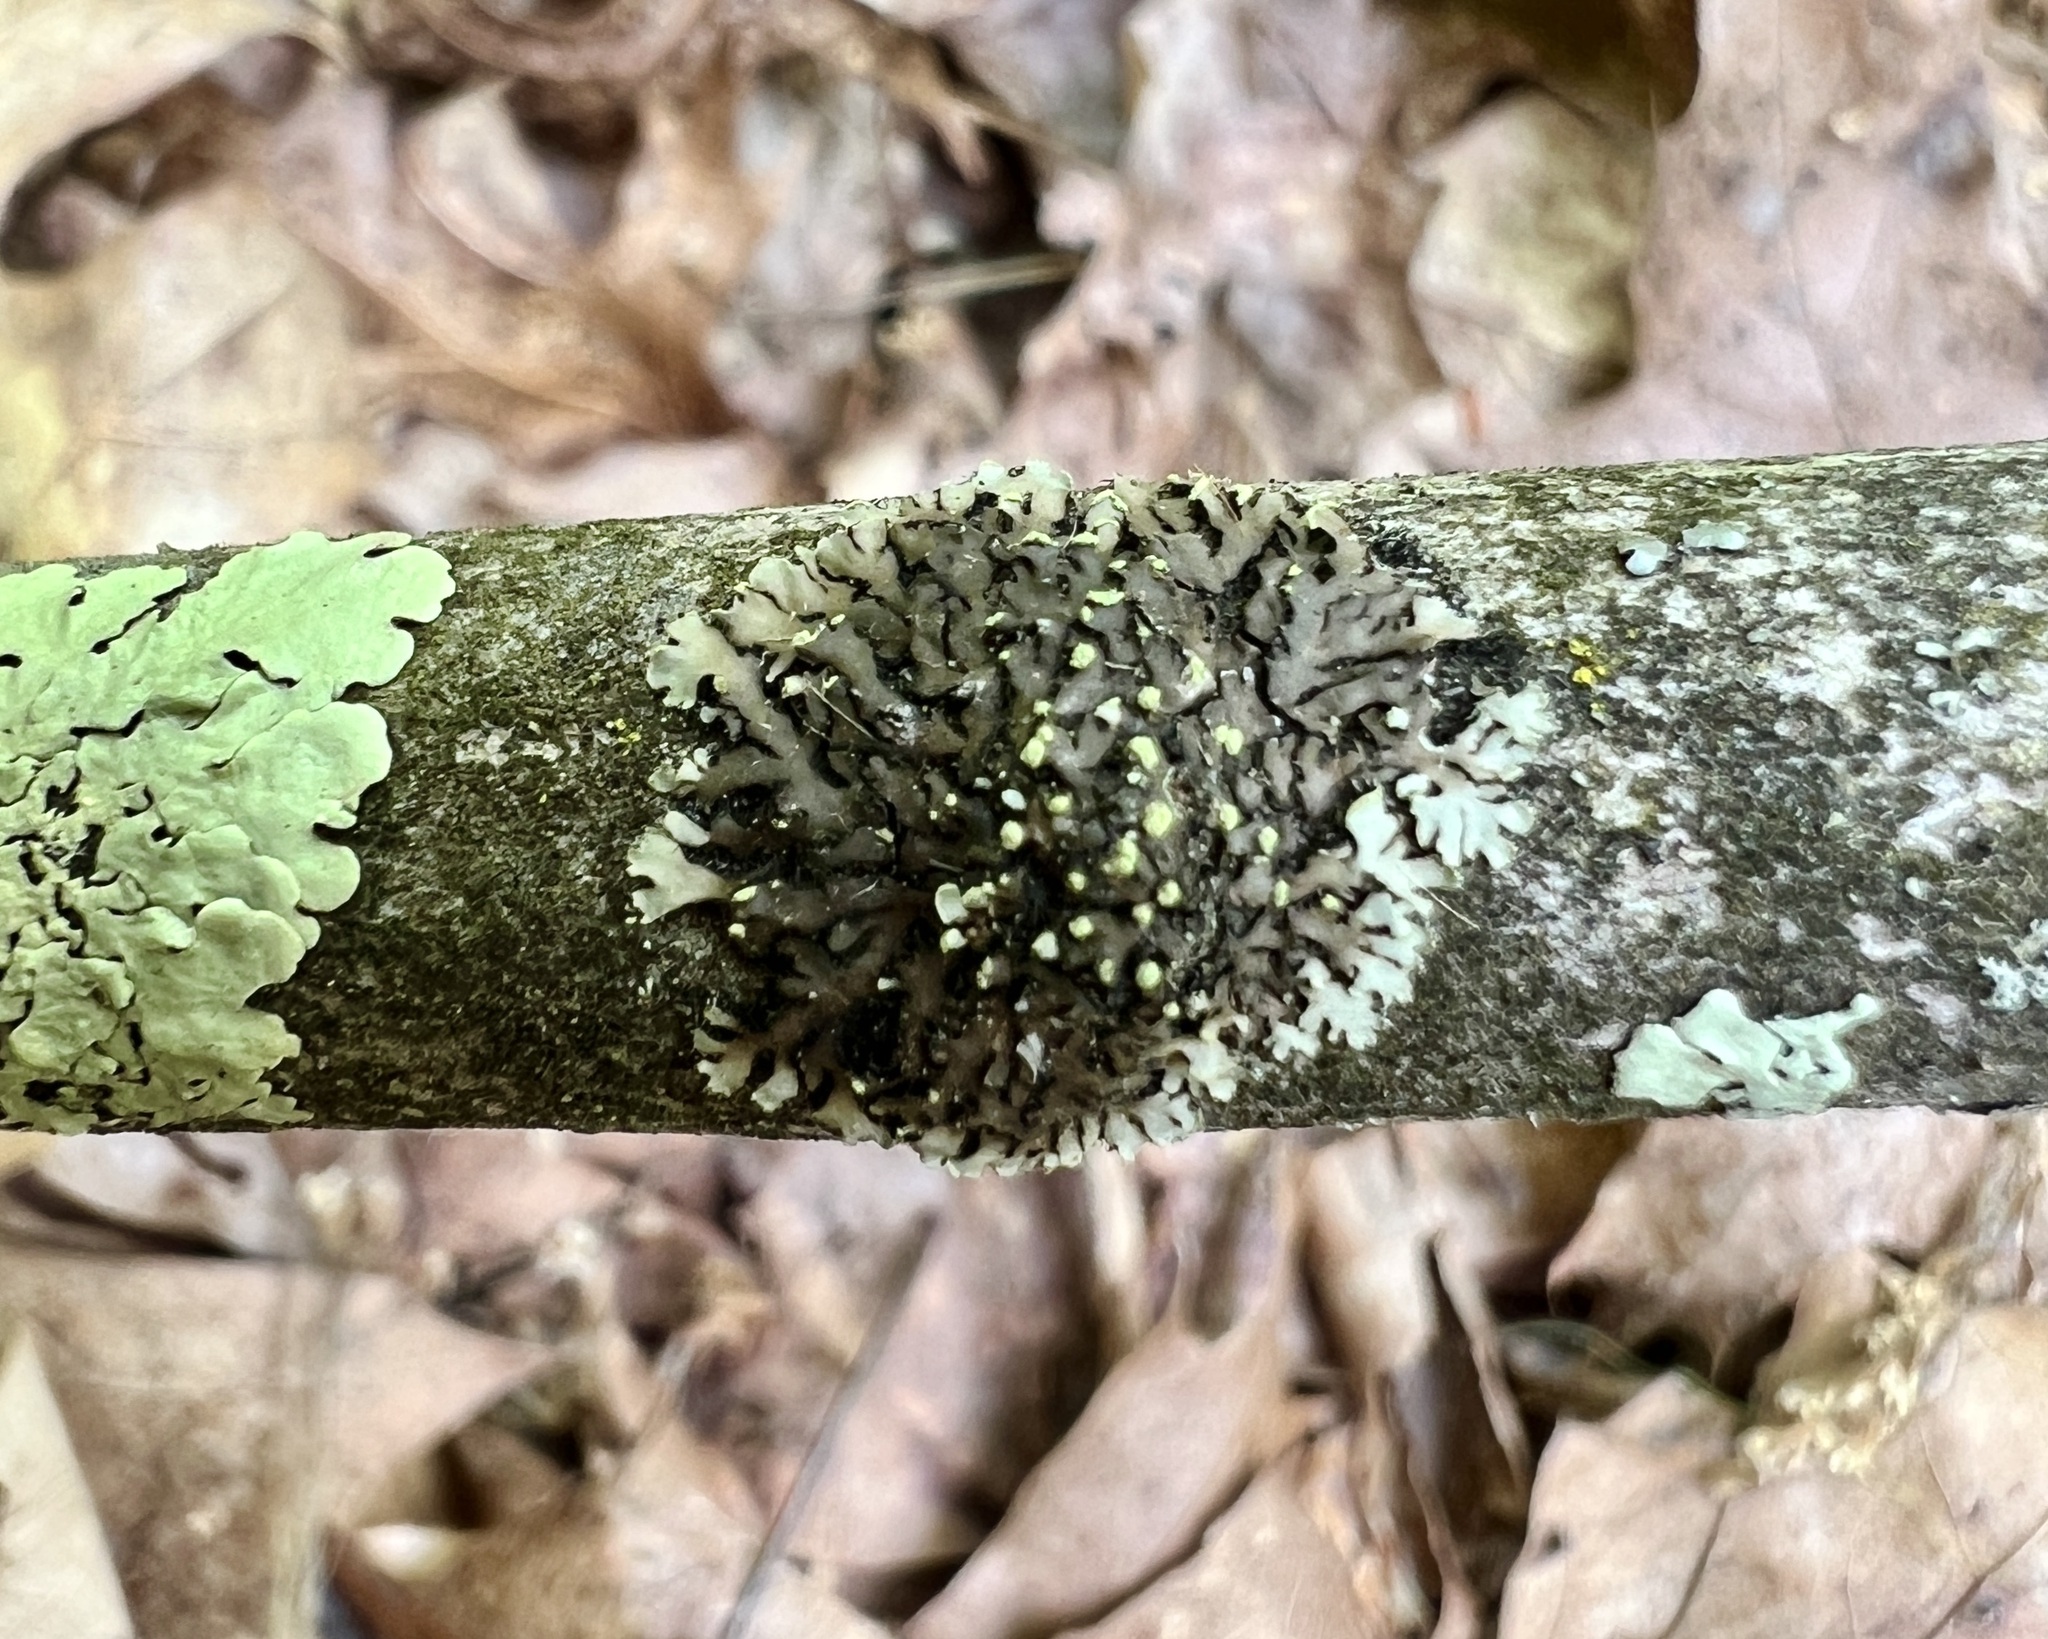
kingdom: Fungi
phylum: Ascomycota
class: Lecanoromycetes
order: Caliciales
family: Physciaceae
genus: Phaeophyscia
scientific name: Phaeophyscia pusilloides
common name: Pom-pom shadow lichen
